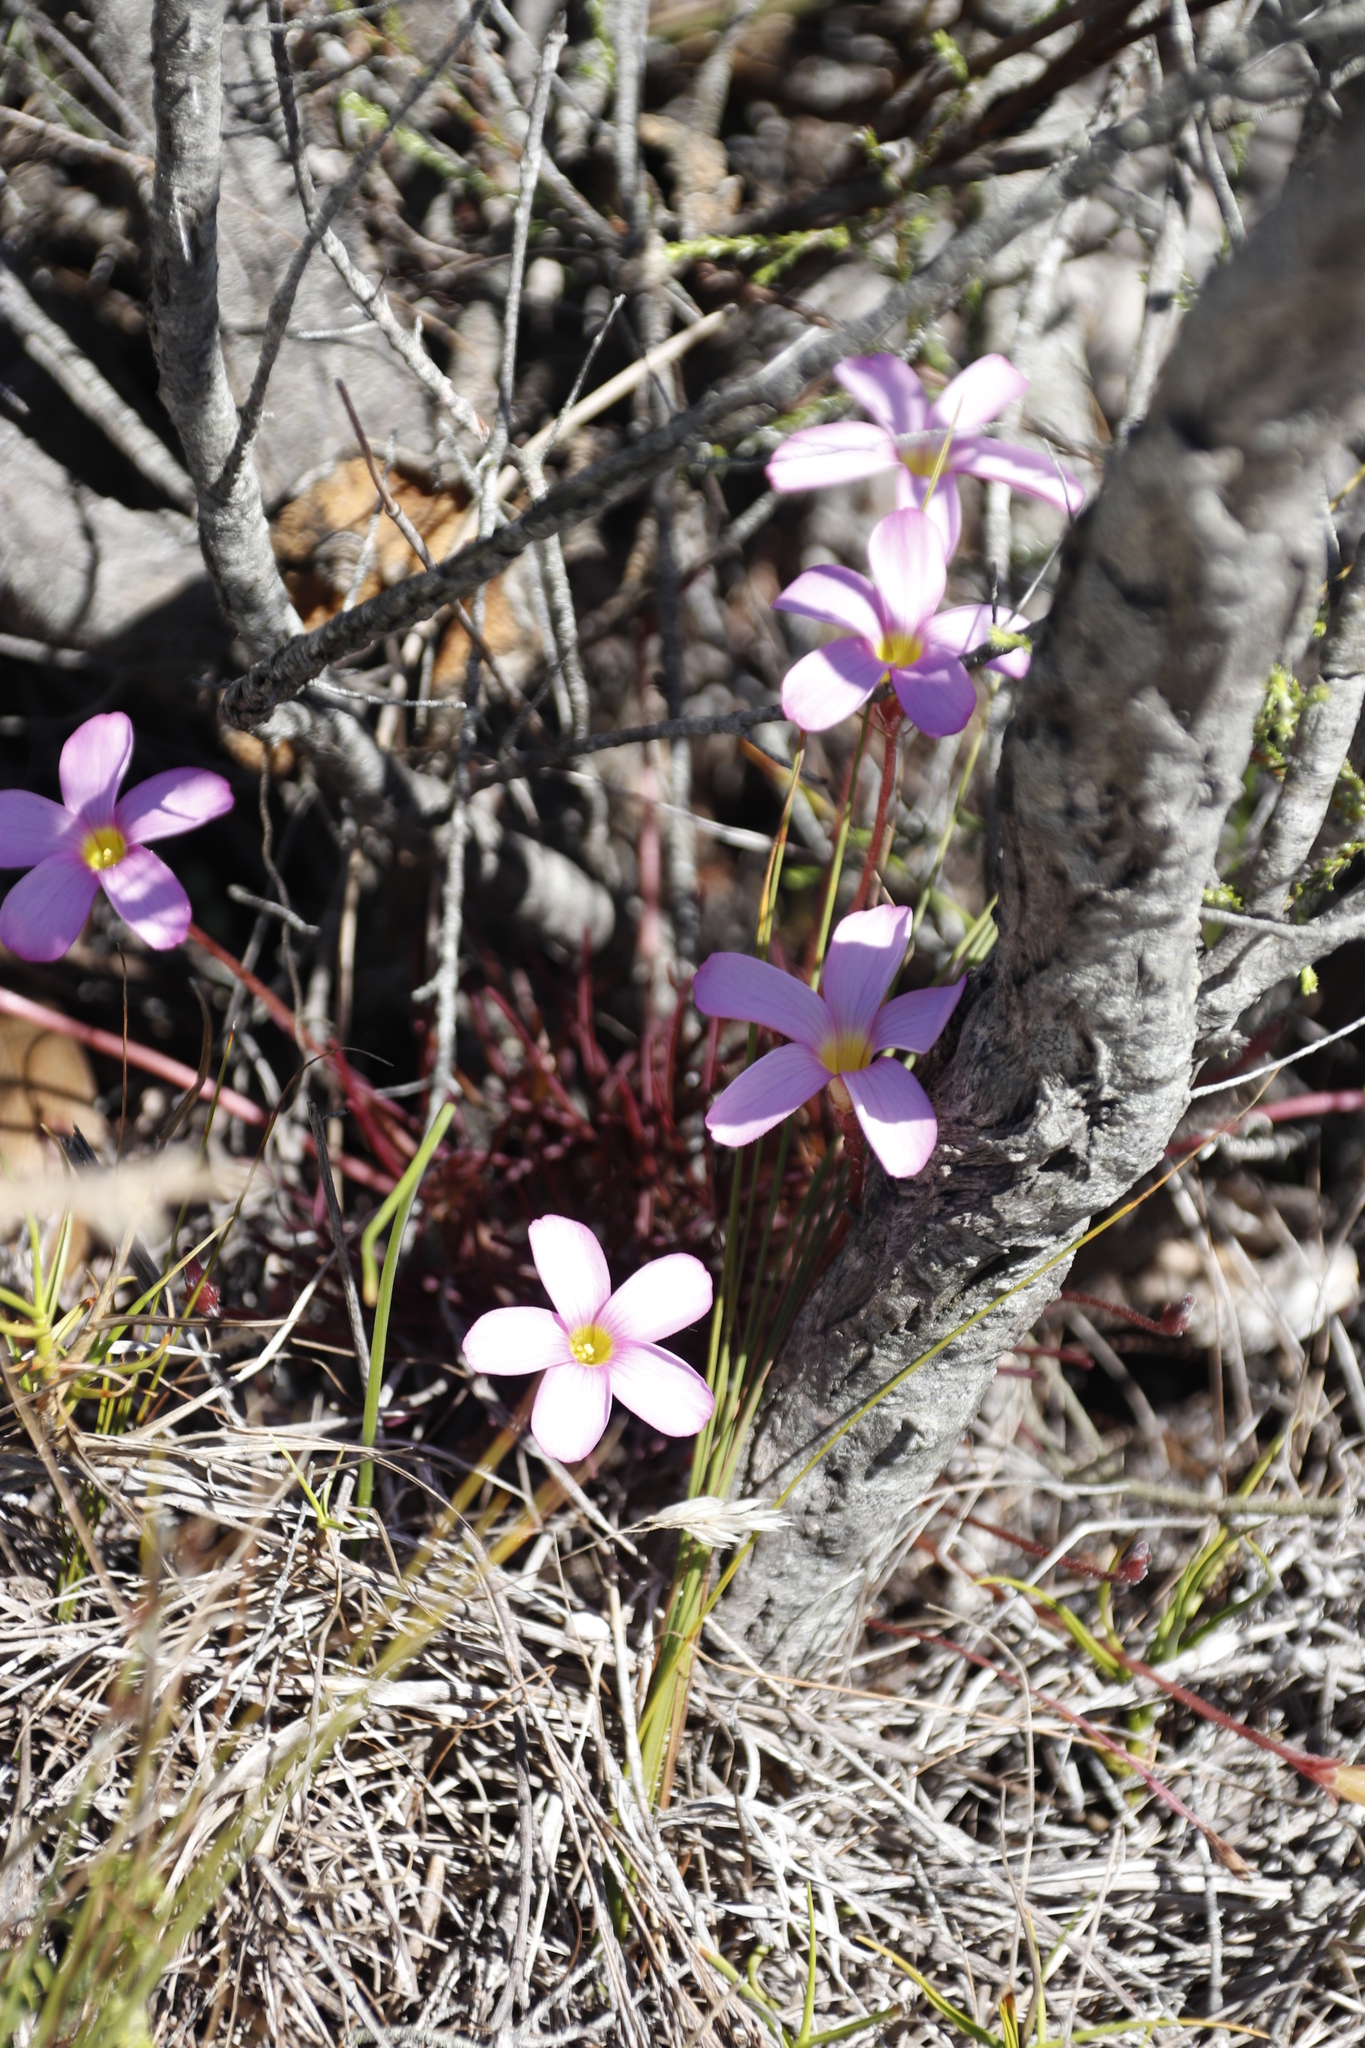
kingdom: Plantae
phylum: Tracheophyta
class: Magnoliopsida
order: Oxalidales
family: Oxalidaceae
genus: Oxalis
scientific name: Oxalis polyphylla
